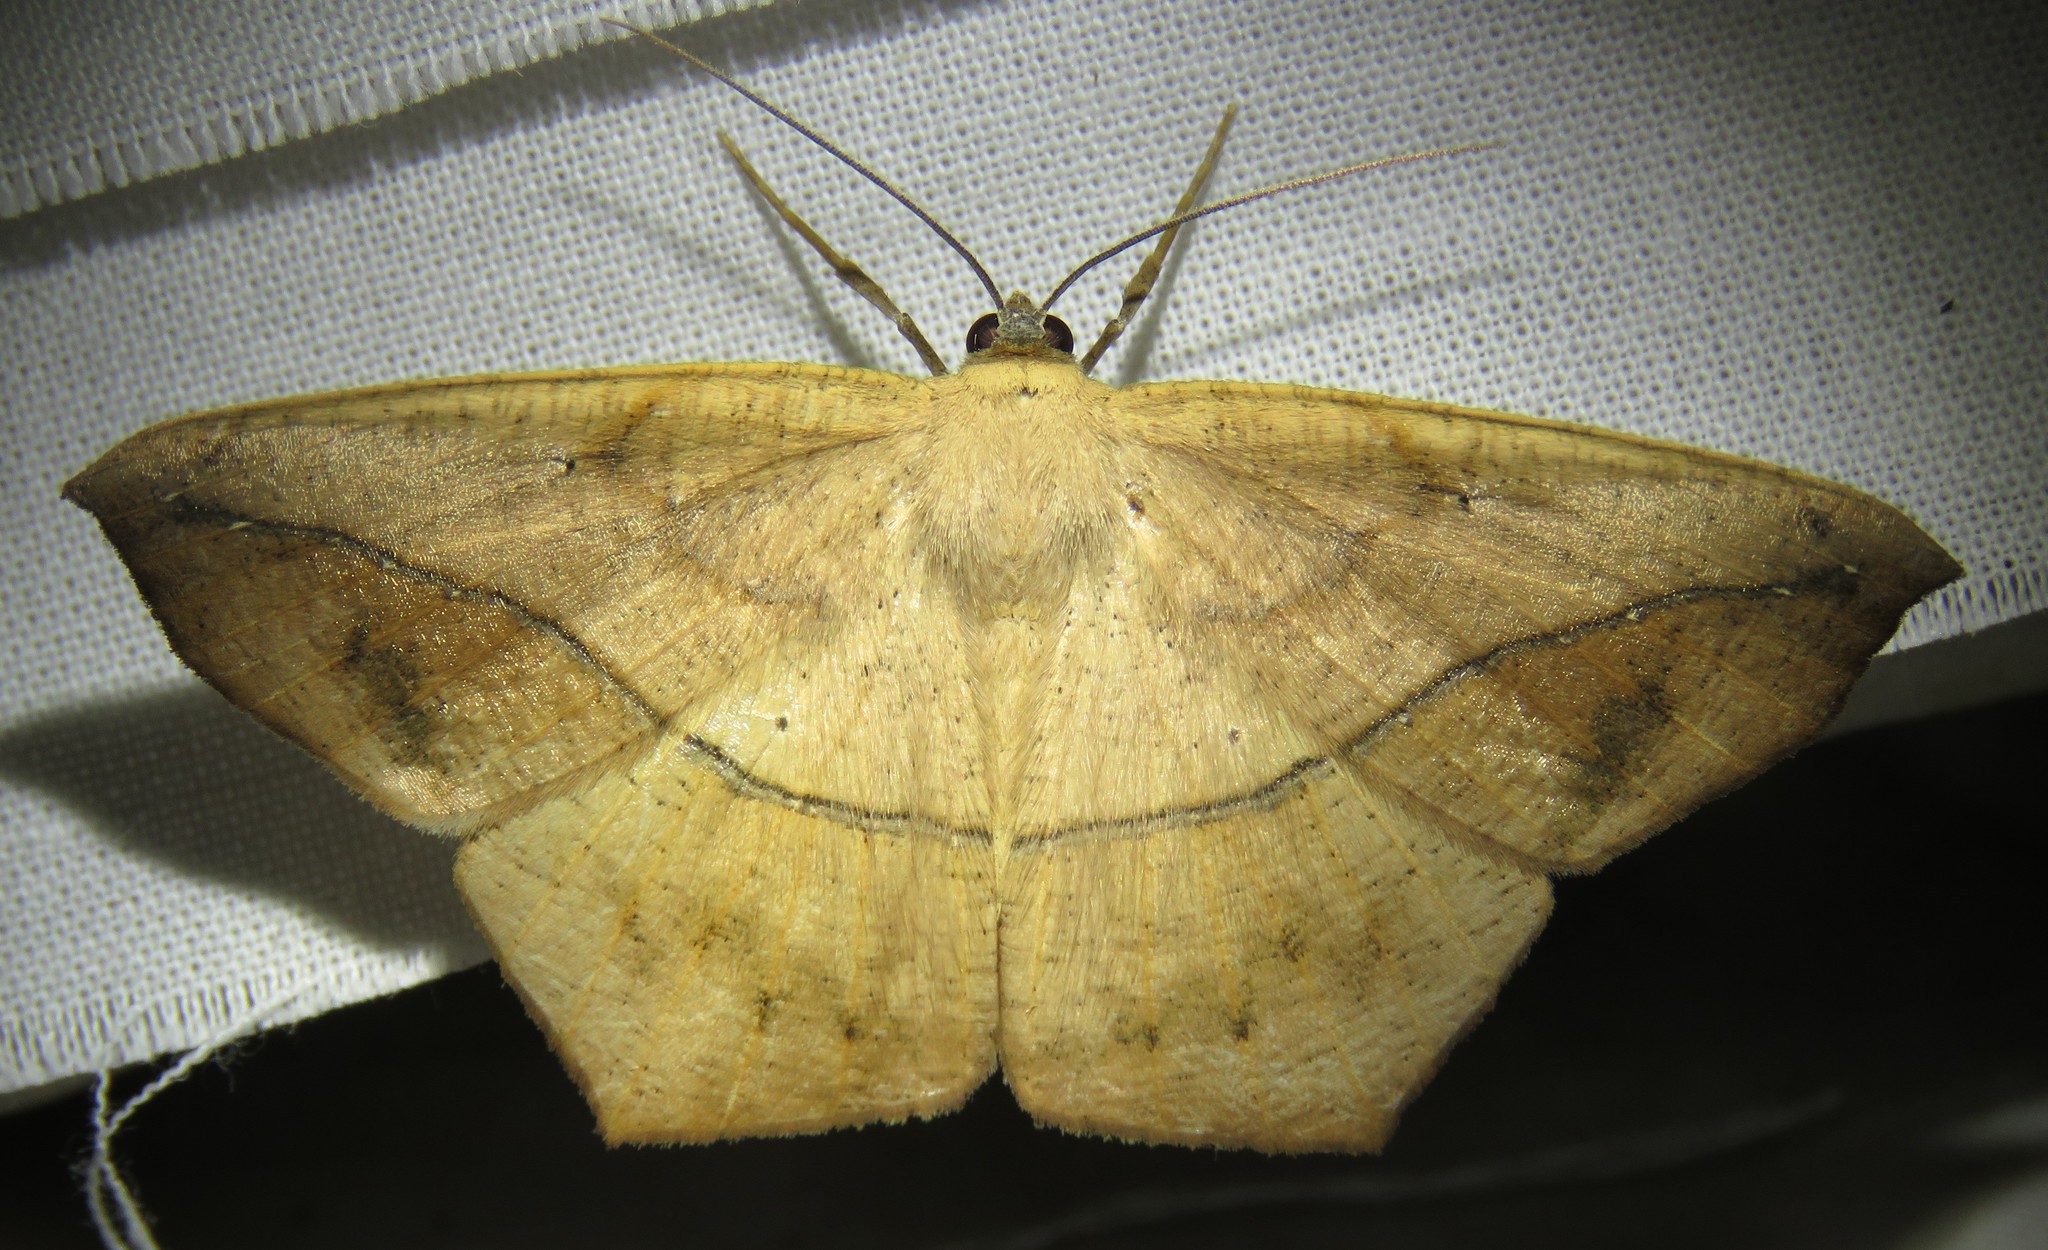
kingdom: Animalia
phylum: Arthropoda
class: Insecta
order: Lepidoptera
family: Geometridae
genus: Prochoerodes
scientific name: Prochoerodes lineola
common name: Large maple spanworm
